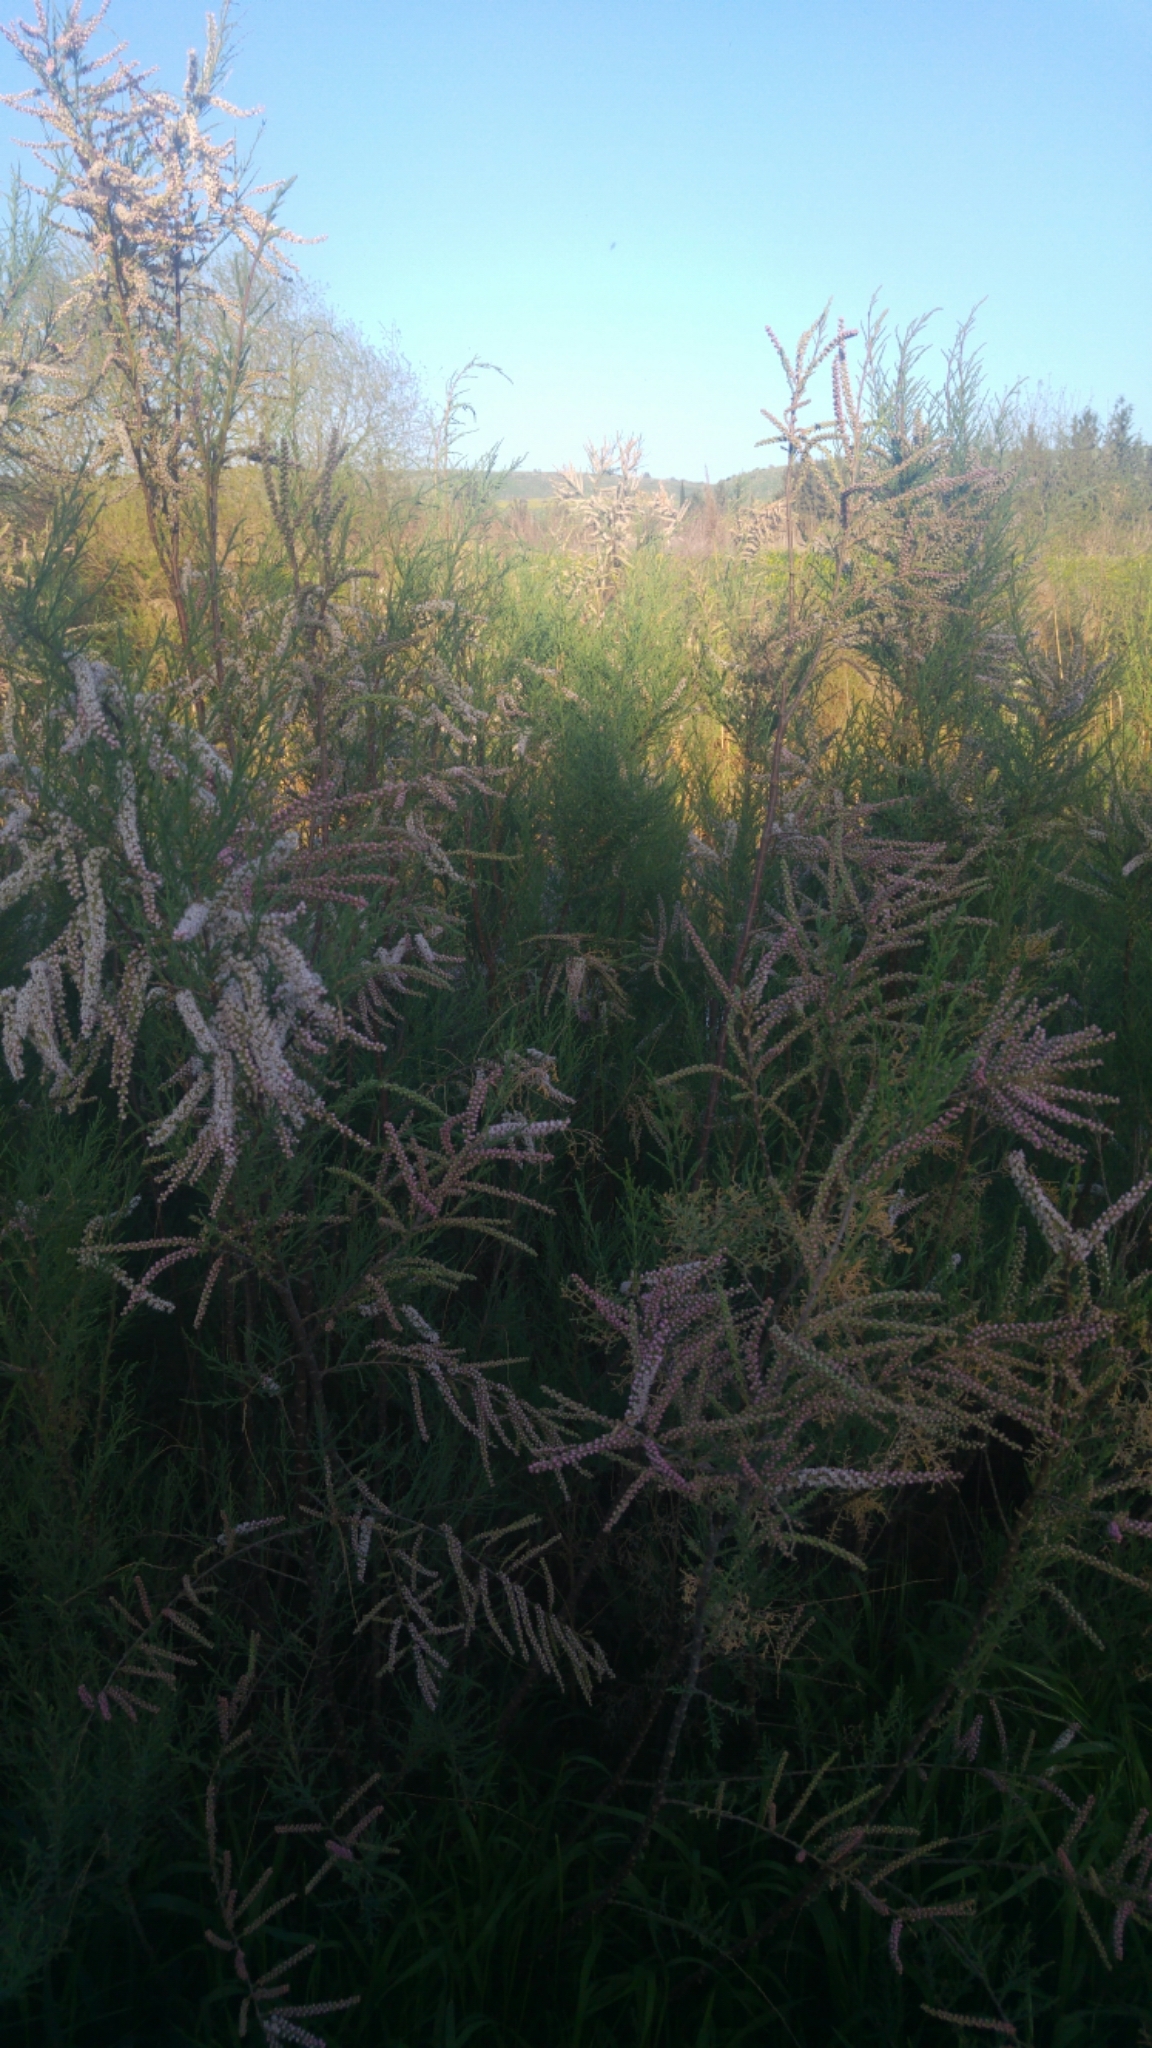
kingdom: Plantae
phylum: Tracheophyta
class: Magnoliopsida
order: Caryophyllales
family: Tamaricaceae
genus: Tamarix
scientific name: Tamarix
